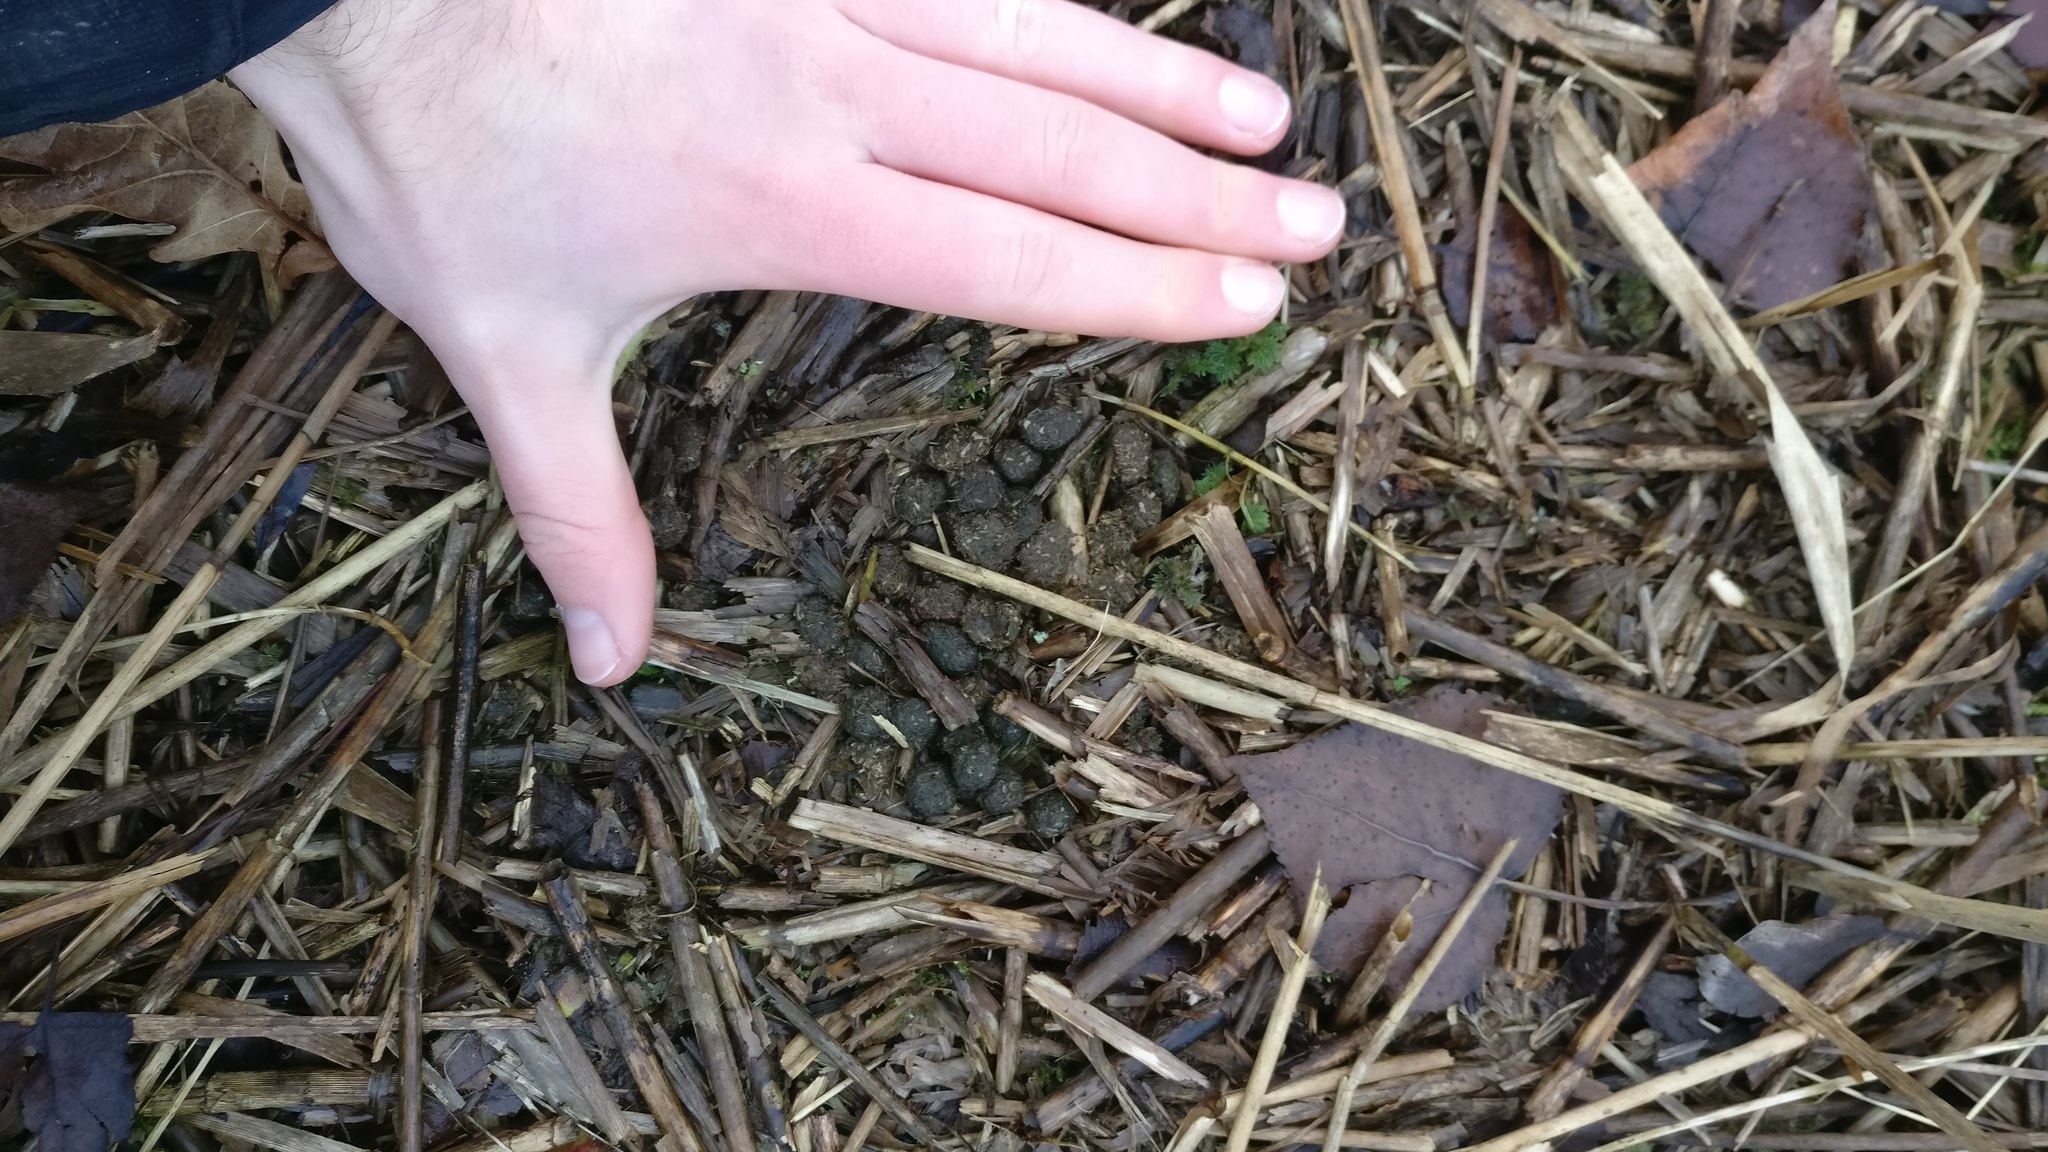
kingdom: Animalia
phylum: Chordata
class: Mammalia
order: Lagomorpha
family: Leporidae
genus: Oryctolagus
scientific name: Oryctolagus cuniculus
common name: European rabbit
